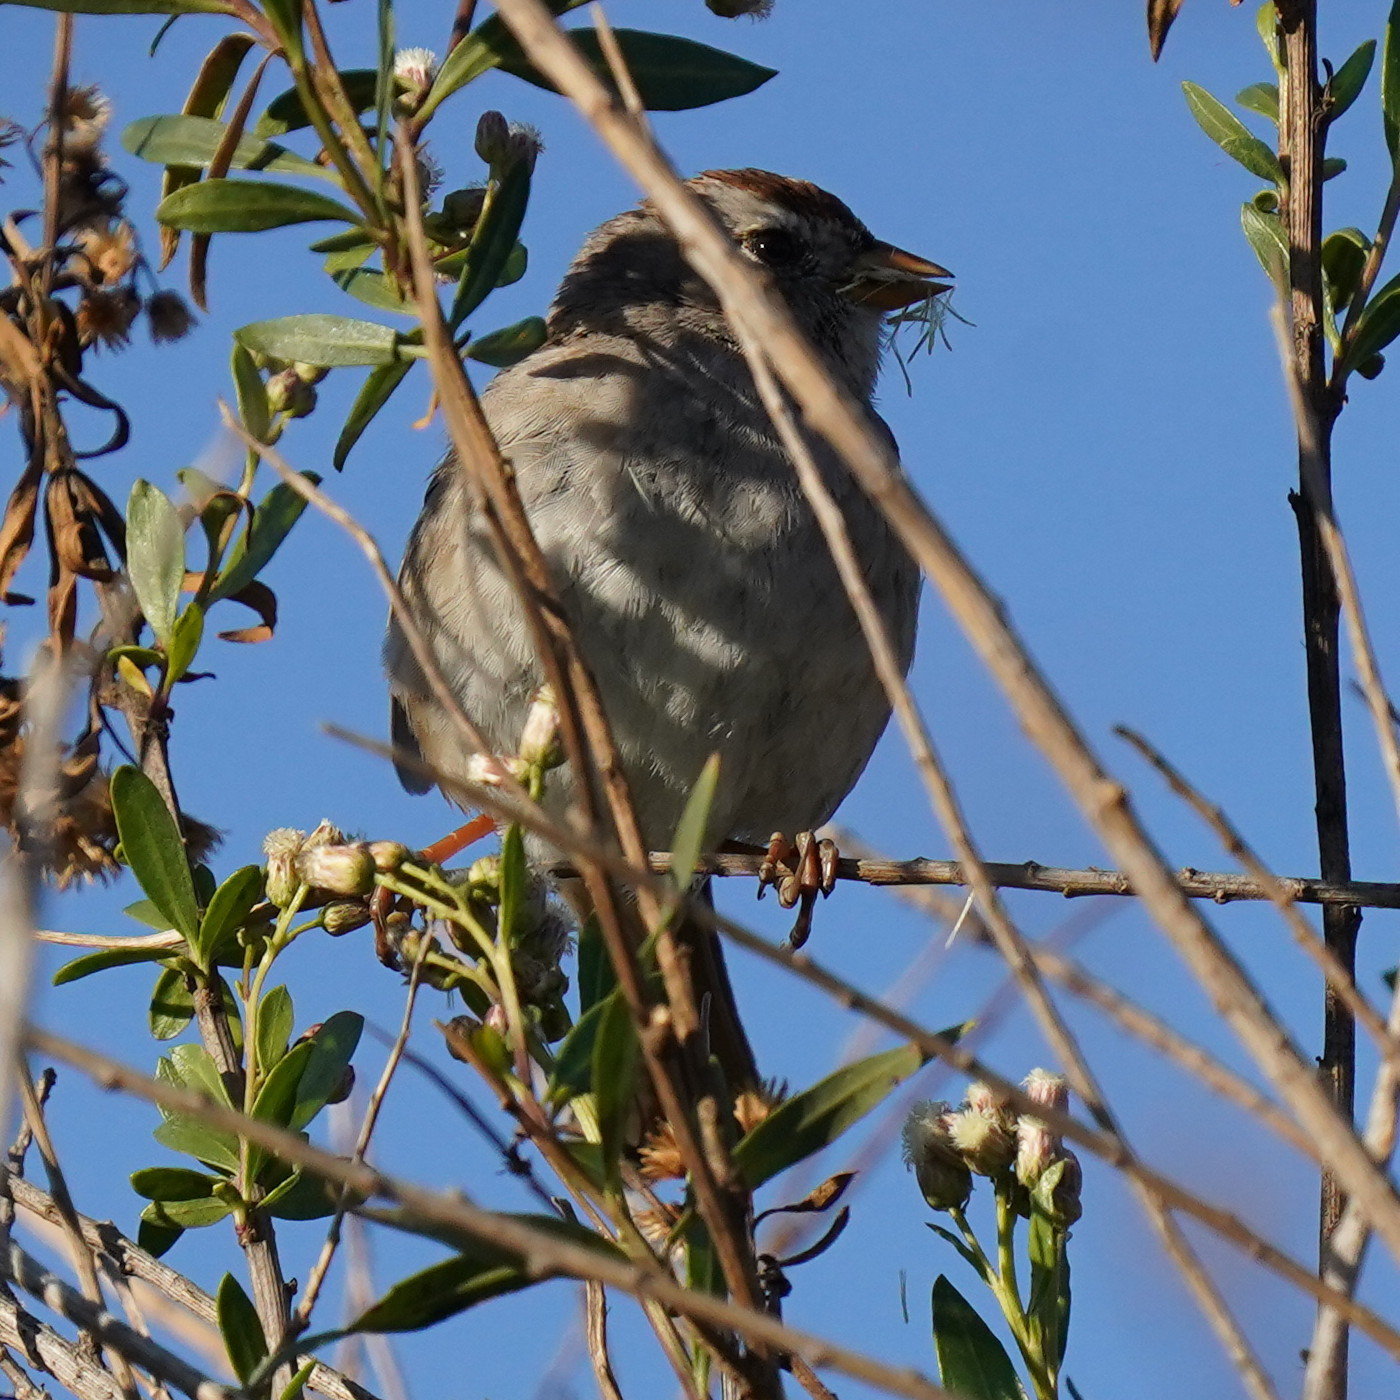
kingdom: Animalia
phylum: Chordata
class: Aves
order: Passeriformes
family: Passerellidae
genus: Zonotrichia
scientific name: Zonotrichia leucophrys
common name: White-crowned sparrow
